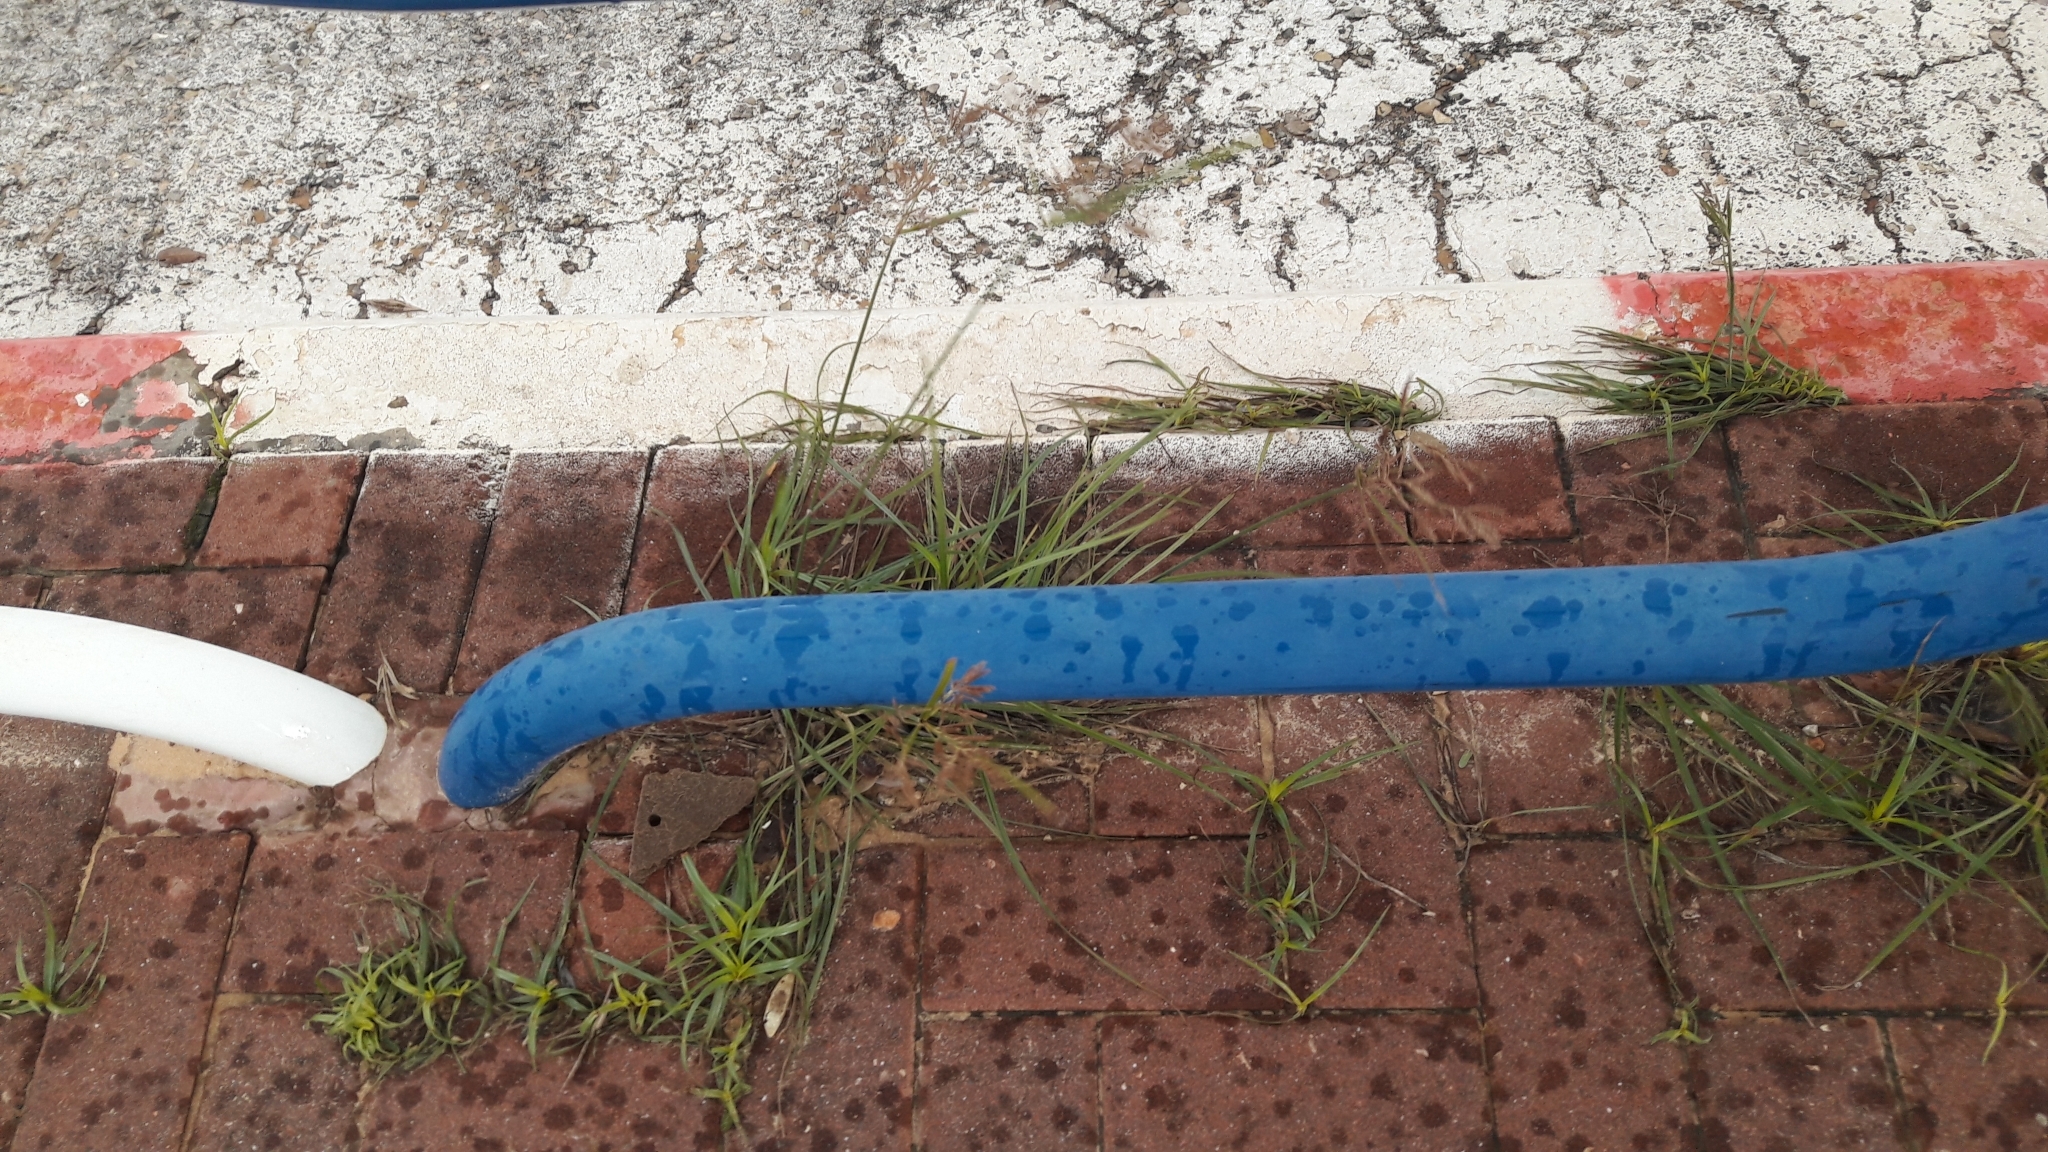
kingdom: Plantae
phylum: Tracheophyta
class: Liliopsida
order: Poales
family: Cyperaceae
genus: Cyperus
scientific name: Cyperus rotundus
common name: Nutgrass
